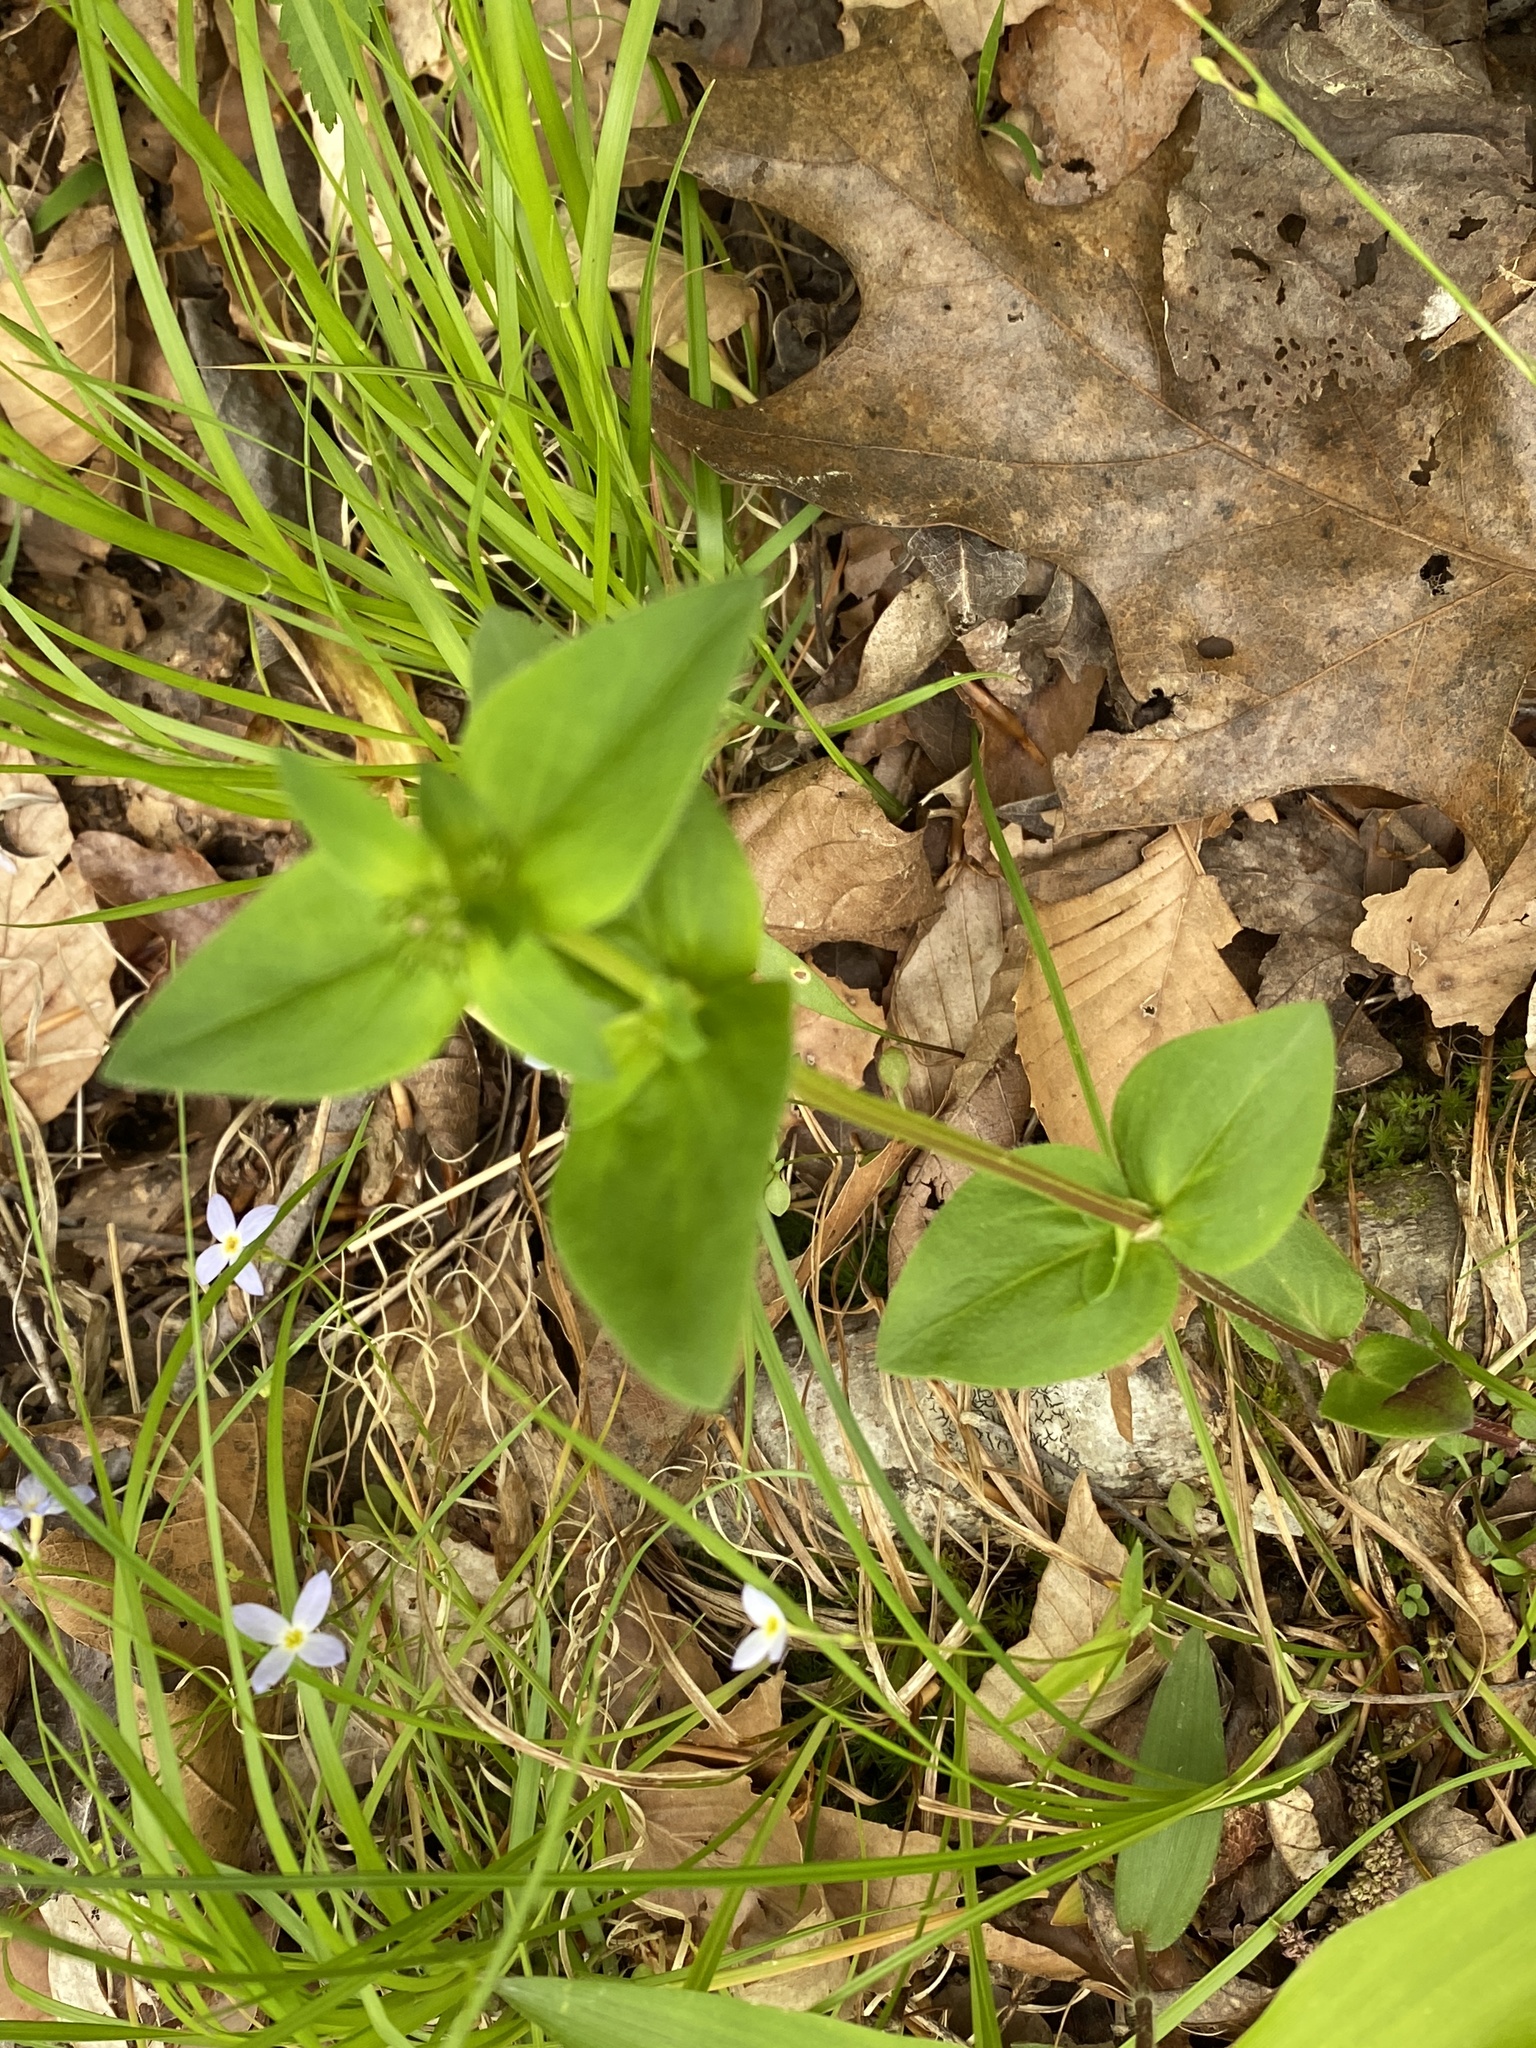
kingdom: Plantae
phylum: Tracheophyta
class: Magnoliopsida
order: Gentianales
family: Rubiaceae
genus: Houstonia
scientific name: Houstonia purpurea
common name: Summer bluet
